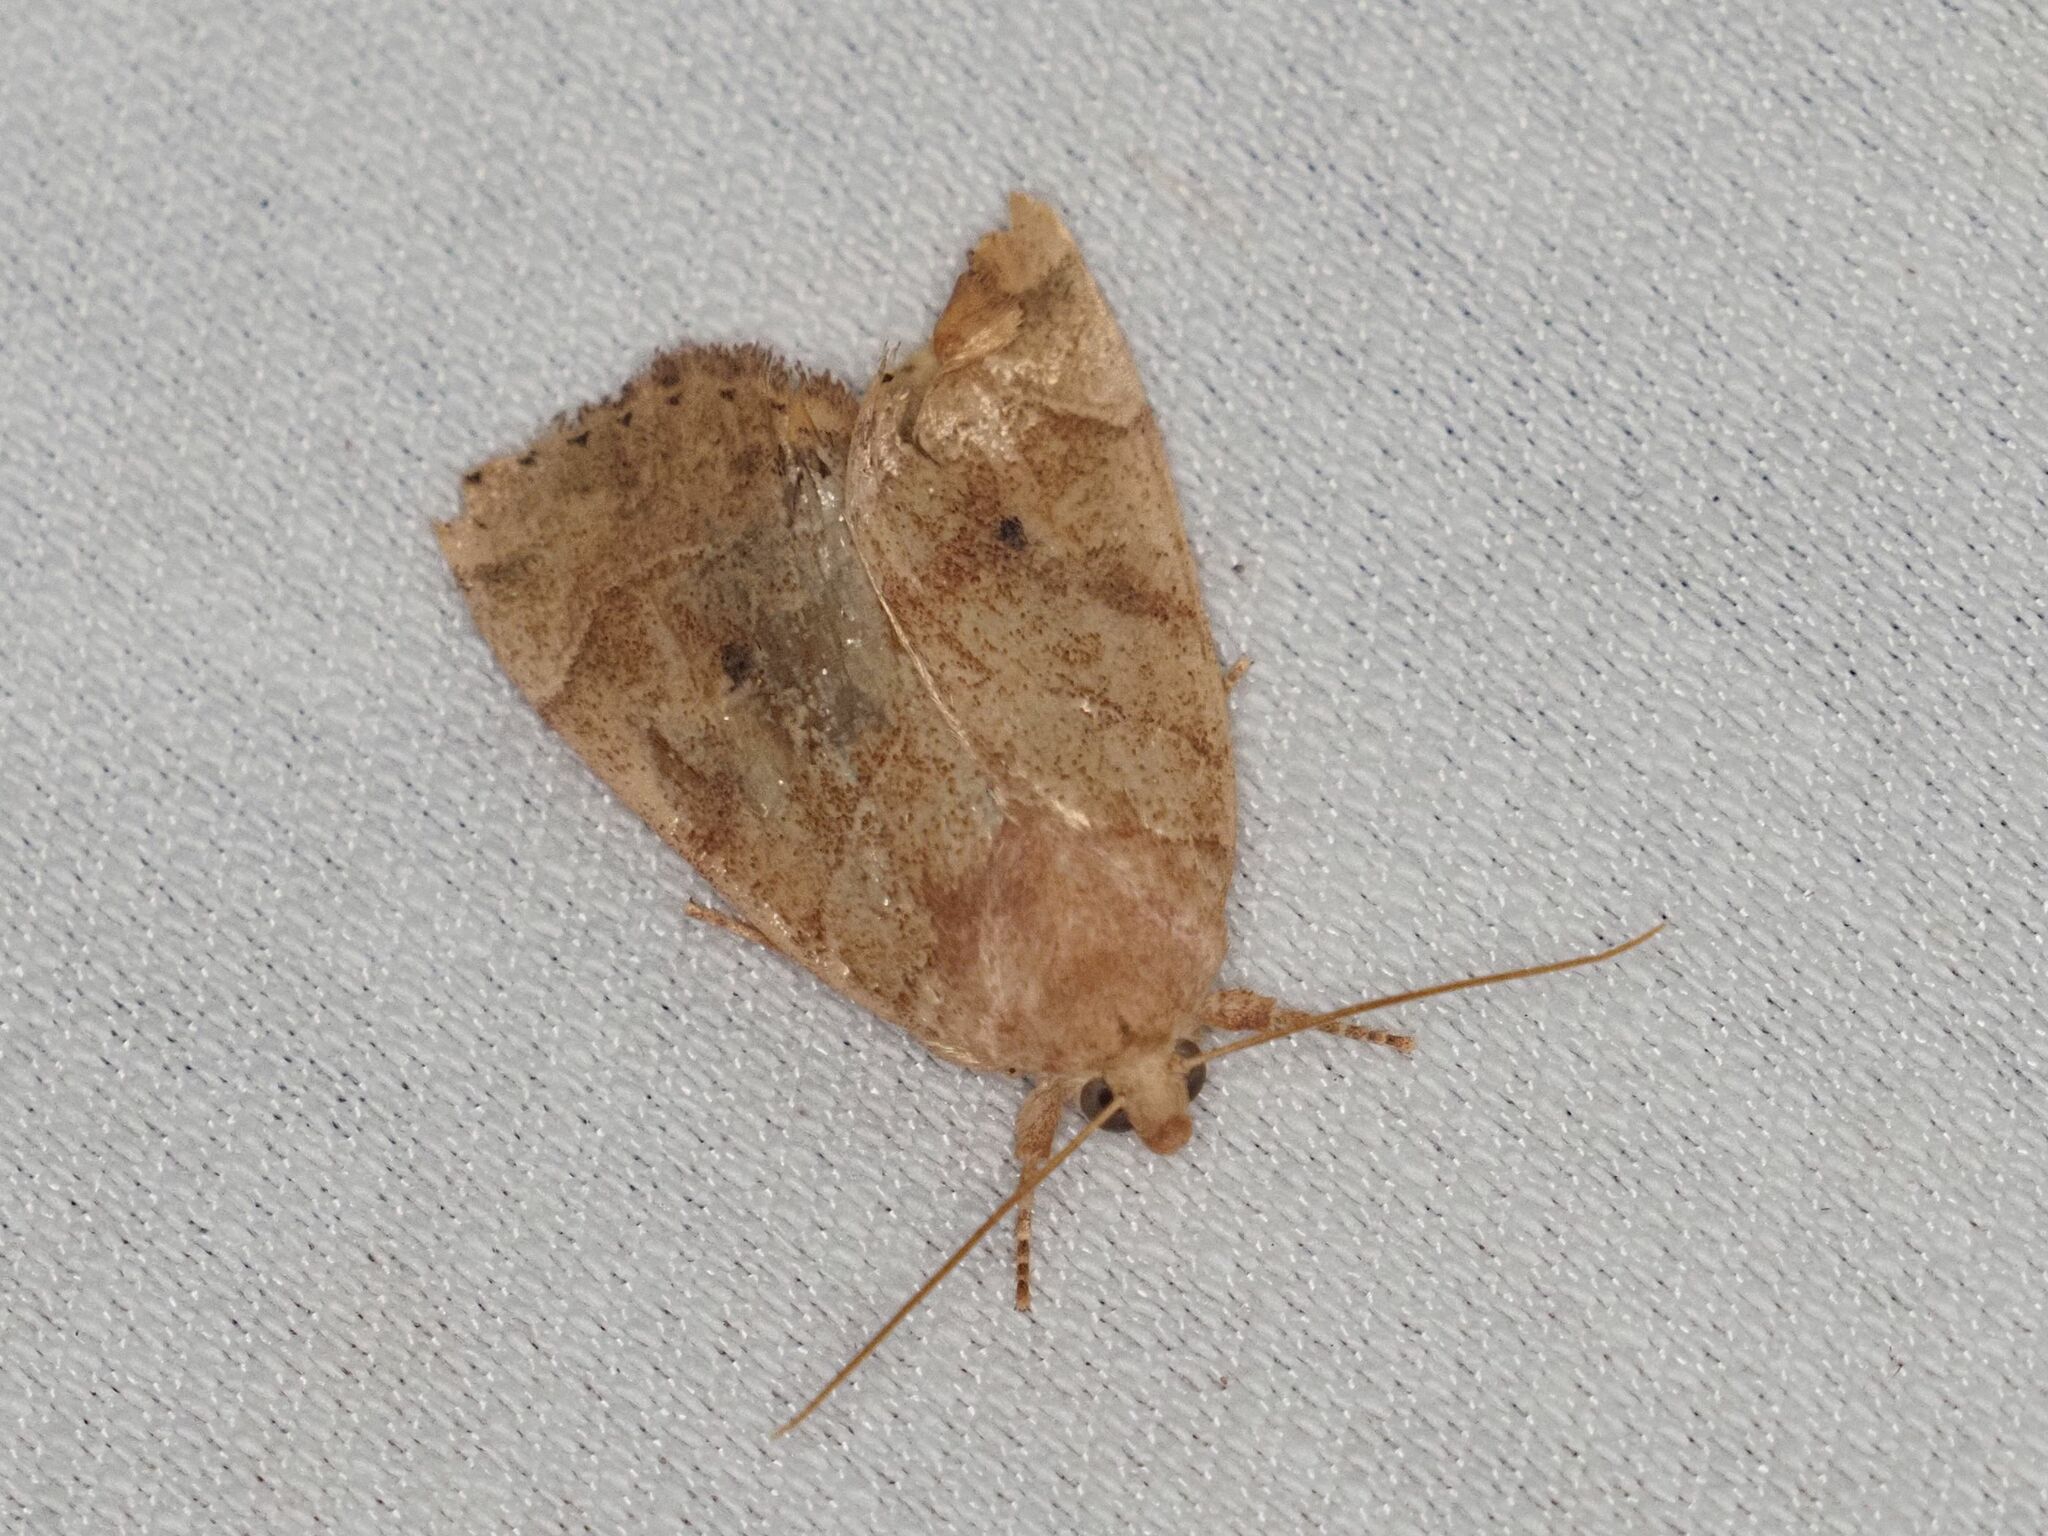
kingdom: Animalia
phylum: Arthropoda
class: Insecta
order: Lepidoptera
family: Noctuidae
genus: Cosmia
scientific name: Cosmia trapezina
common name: Dun-bar
